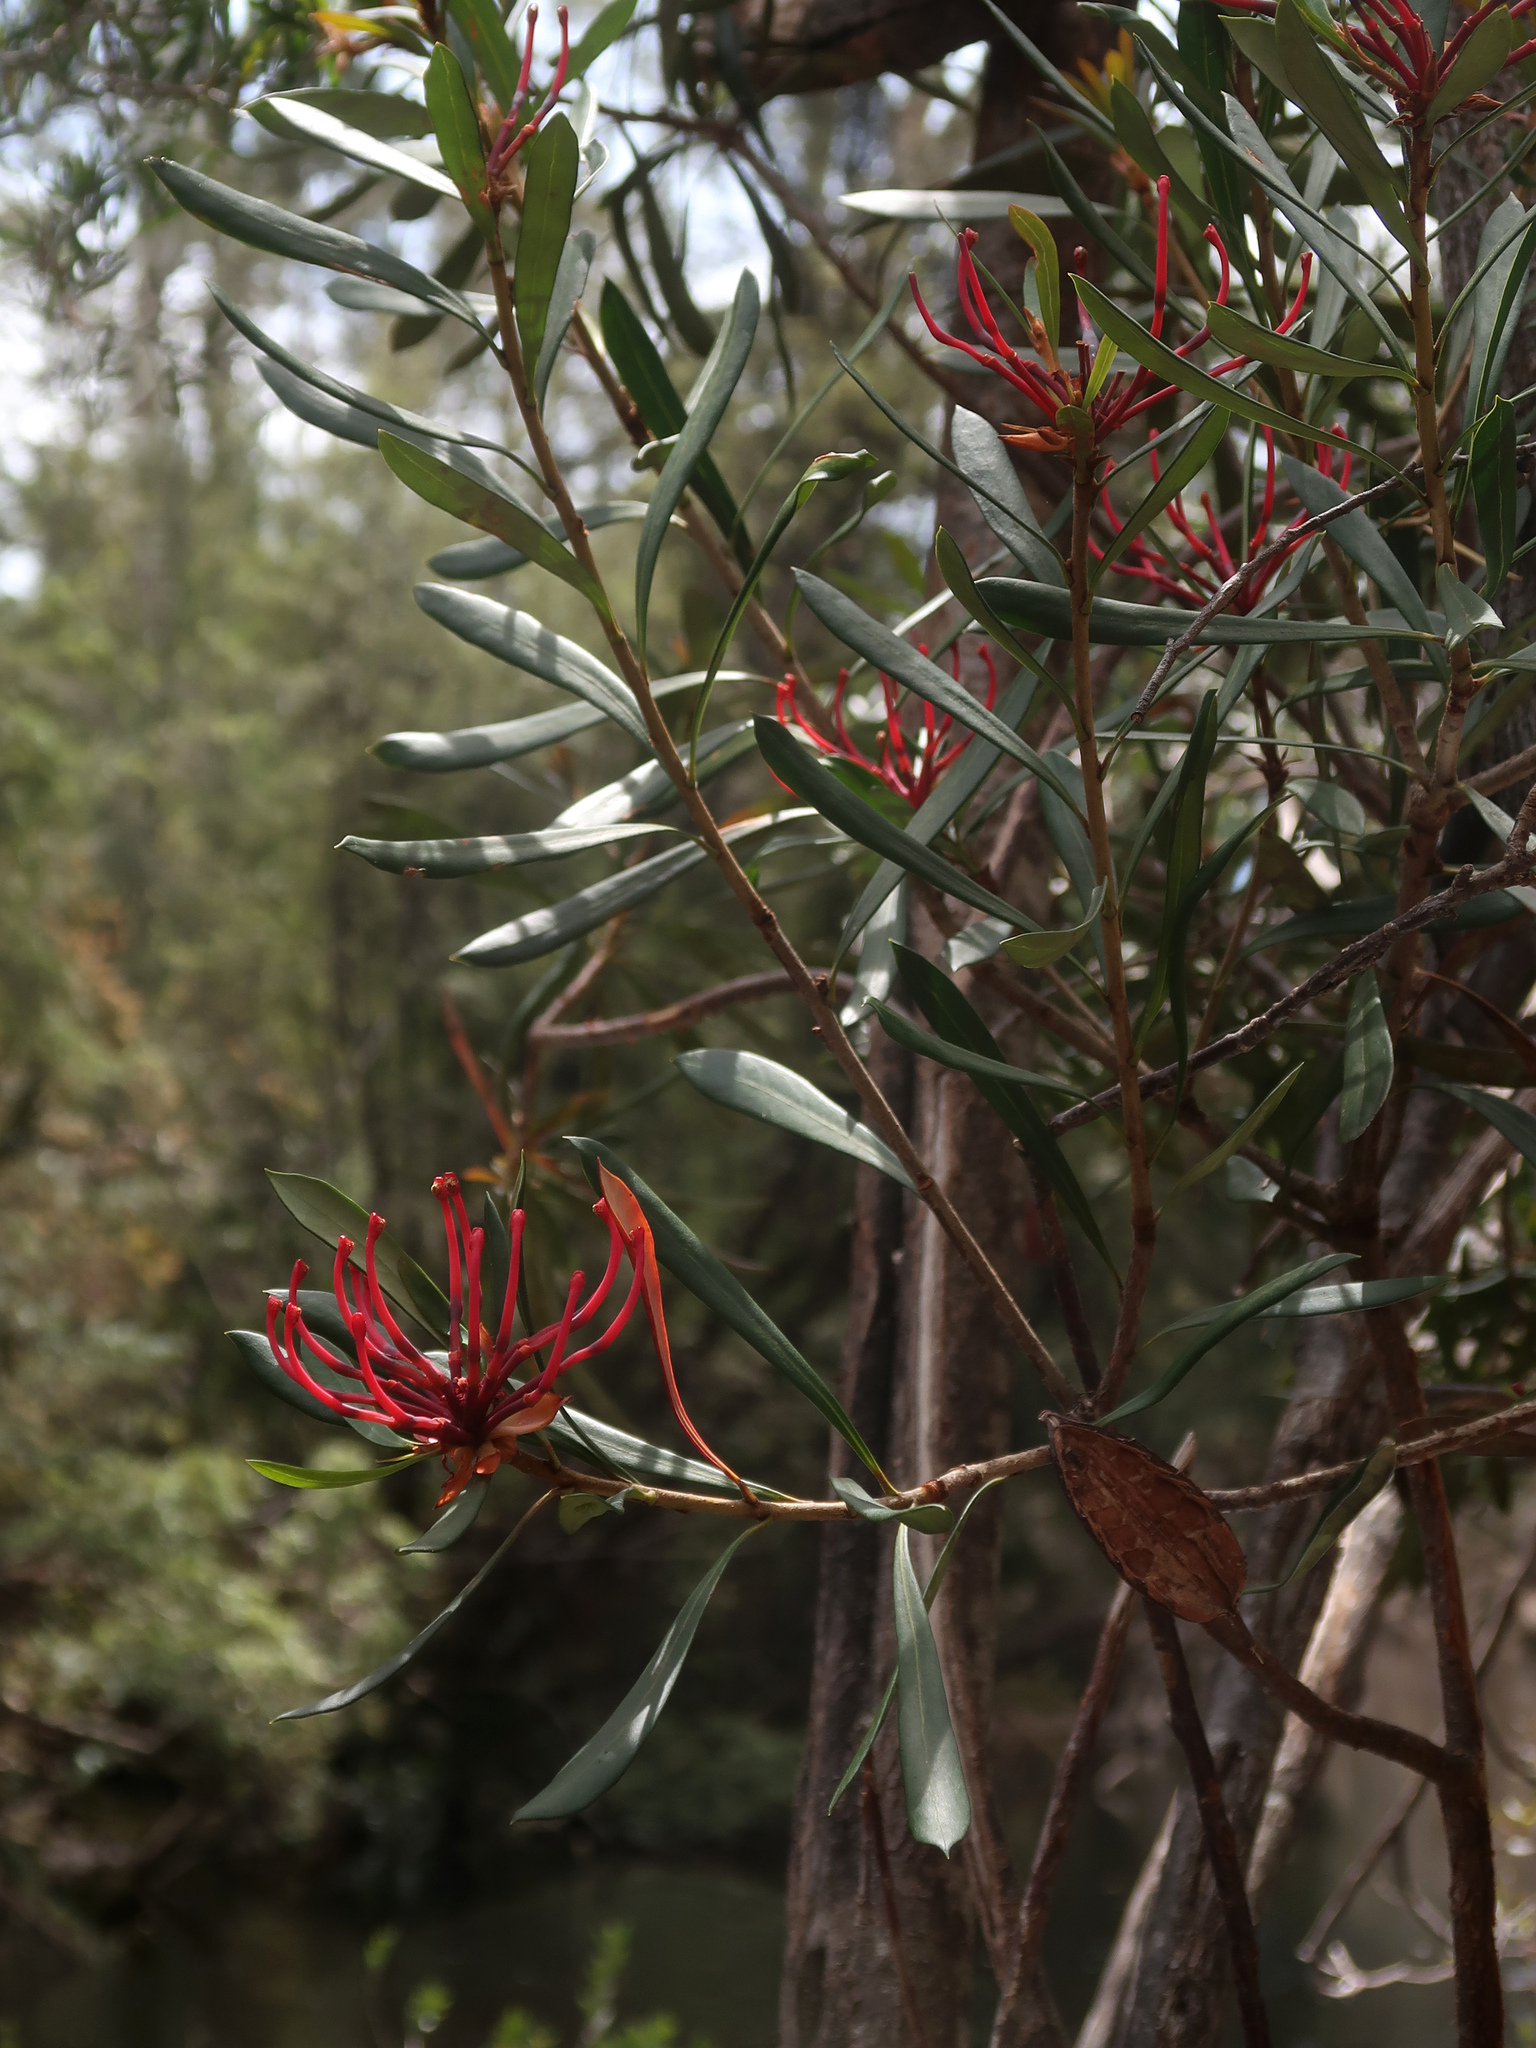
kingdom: Plantae
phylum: Tracheophyta
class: Magnoliopsida
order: Proteales
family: Proteaceae
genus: Telopea
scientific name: Telopea truncata
